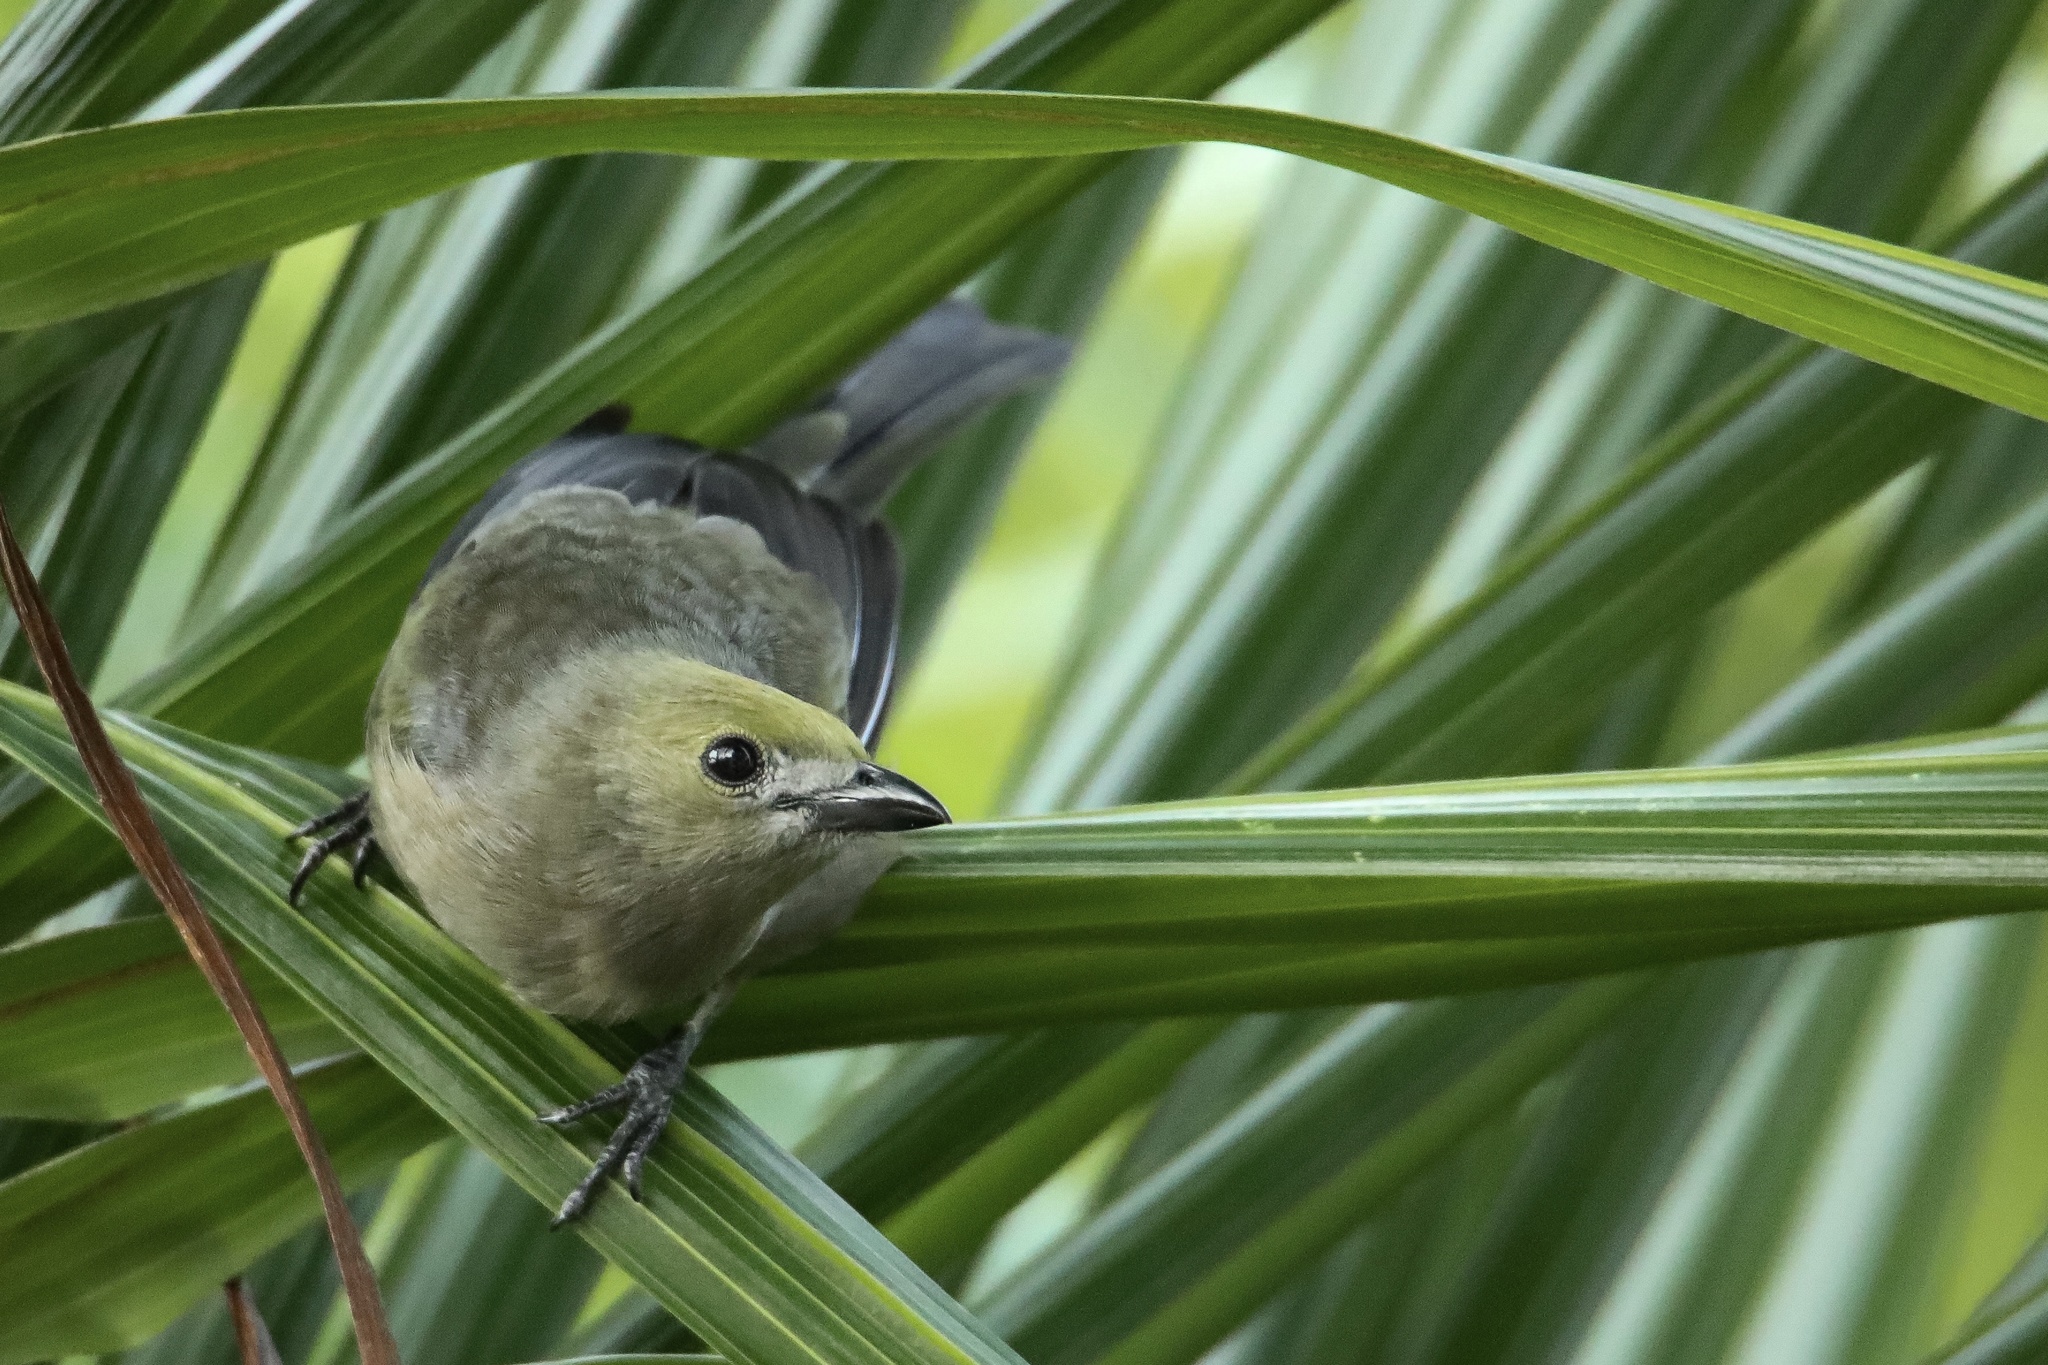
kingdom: Animalia
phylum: Chordata
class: Aves
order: Passeriformes
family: Thraupidae
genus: Thraupis
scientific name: Thraupis palmarum
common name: Palm tanager
